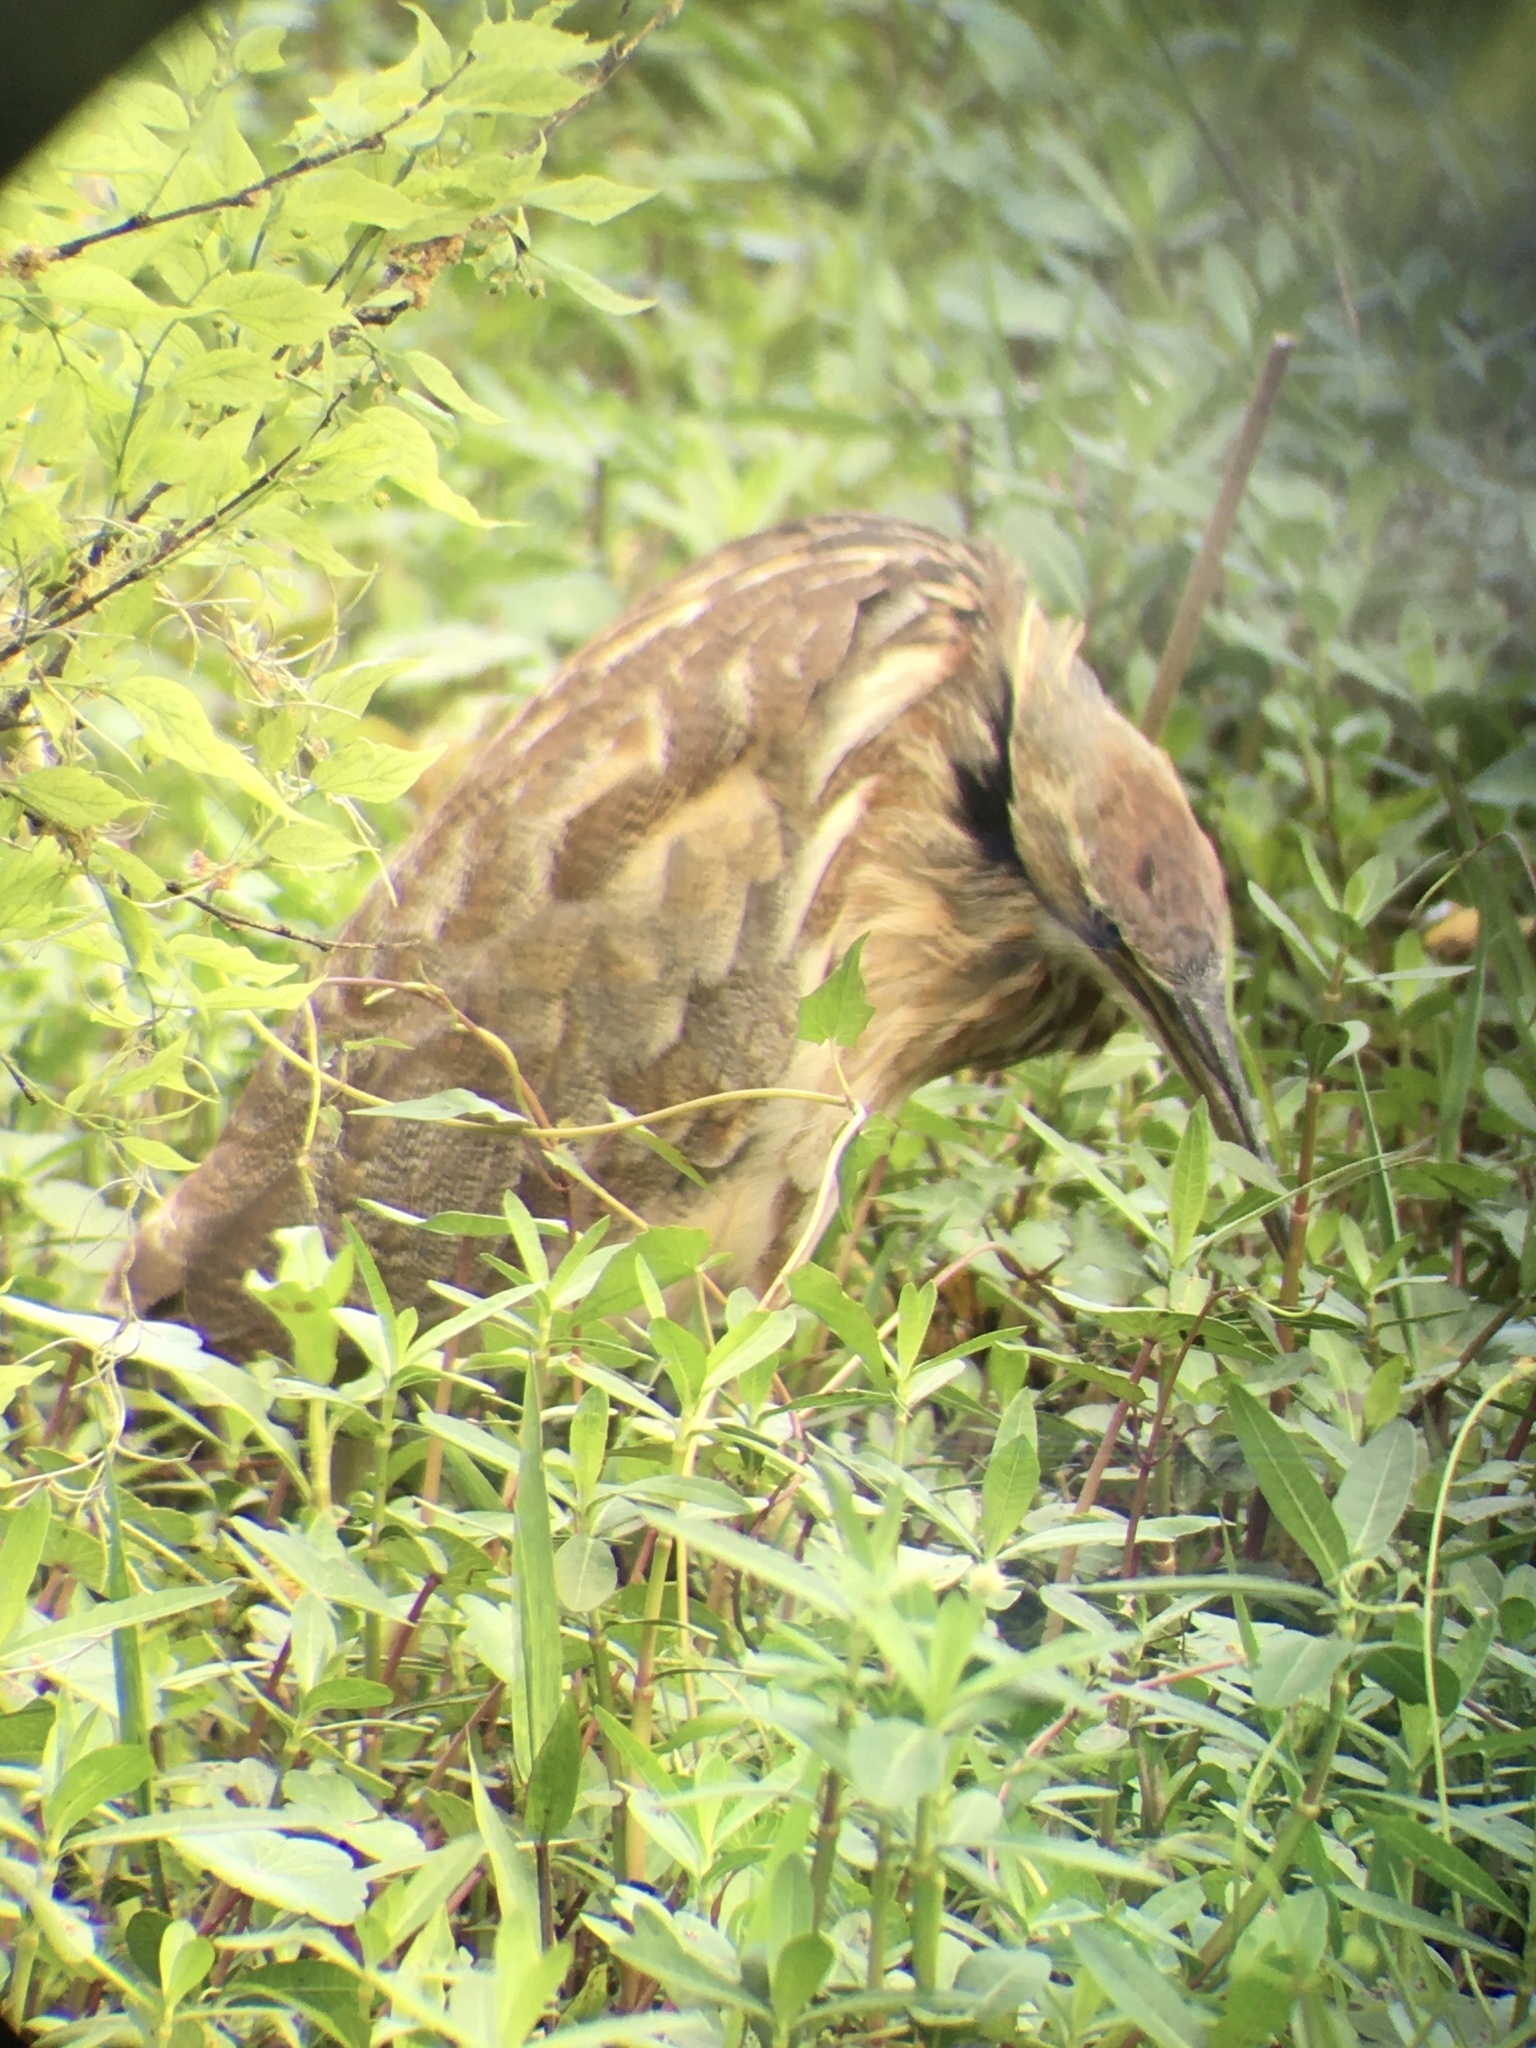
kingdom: Animalia
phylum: Chordata
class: Aves
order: Pelecaniformes
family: Ardeidae
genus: Botaurus
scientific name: Botaurus lentiginosus
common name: American bittern
